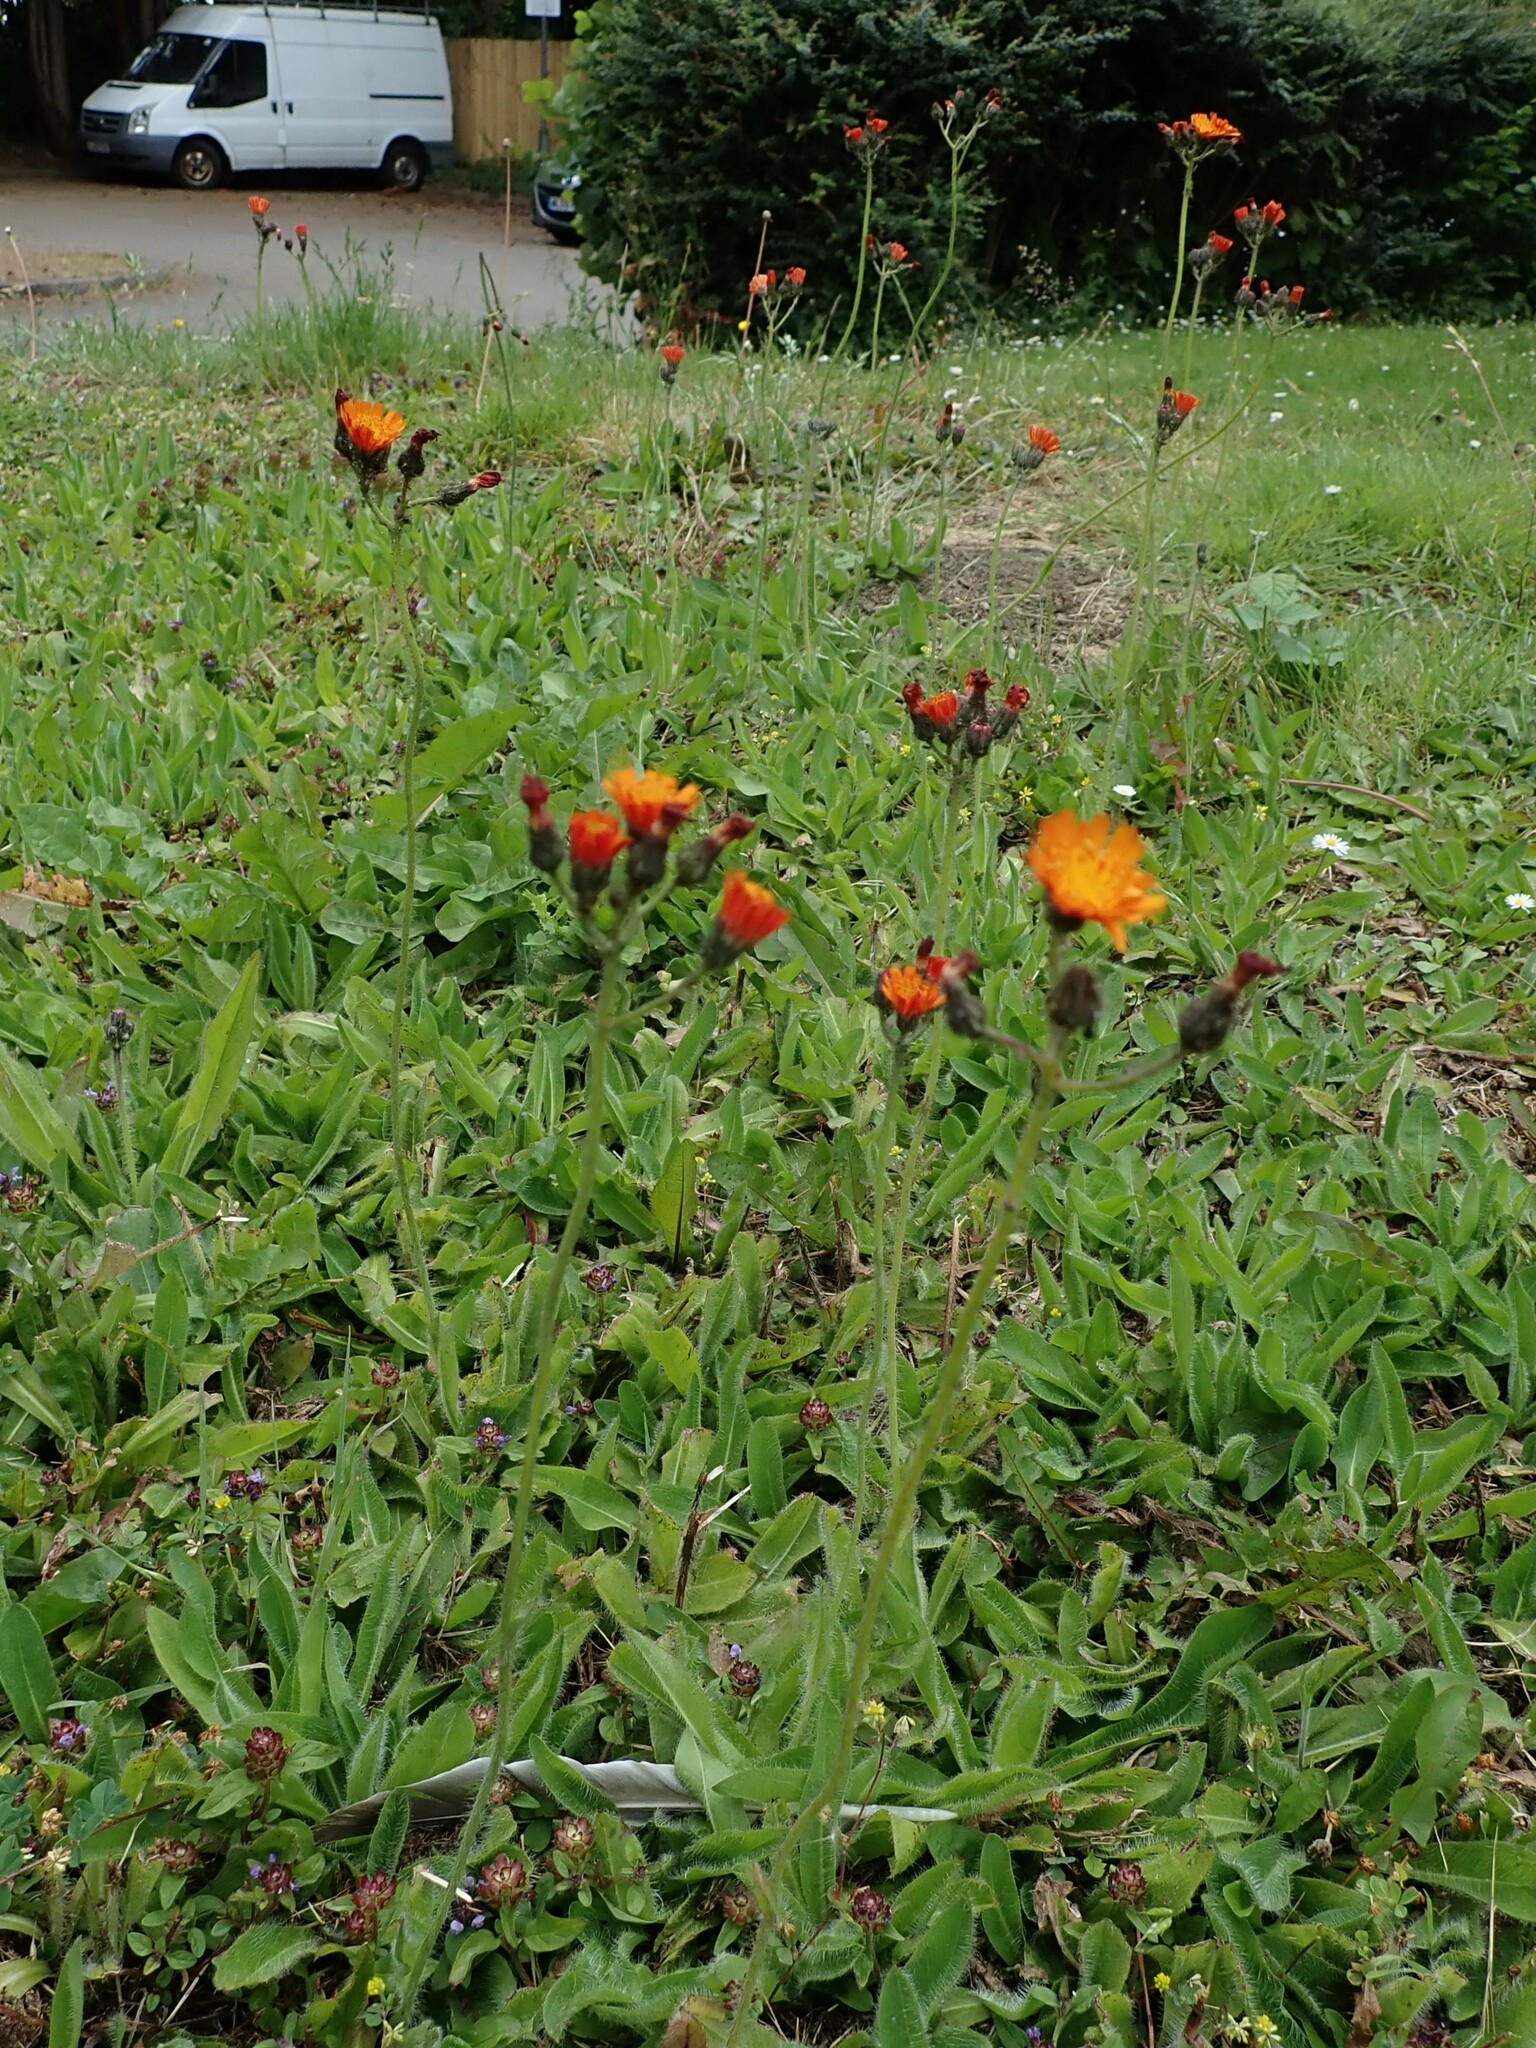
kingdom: Plantae
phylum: Tracheophyta
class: Magnoliopsida
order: Asterales
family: Asteraceae
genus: Pilosella
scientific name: Pilosella aurantiaca
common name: Fox-and-cubs
